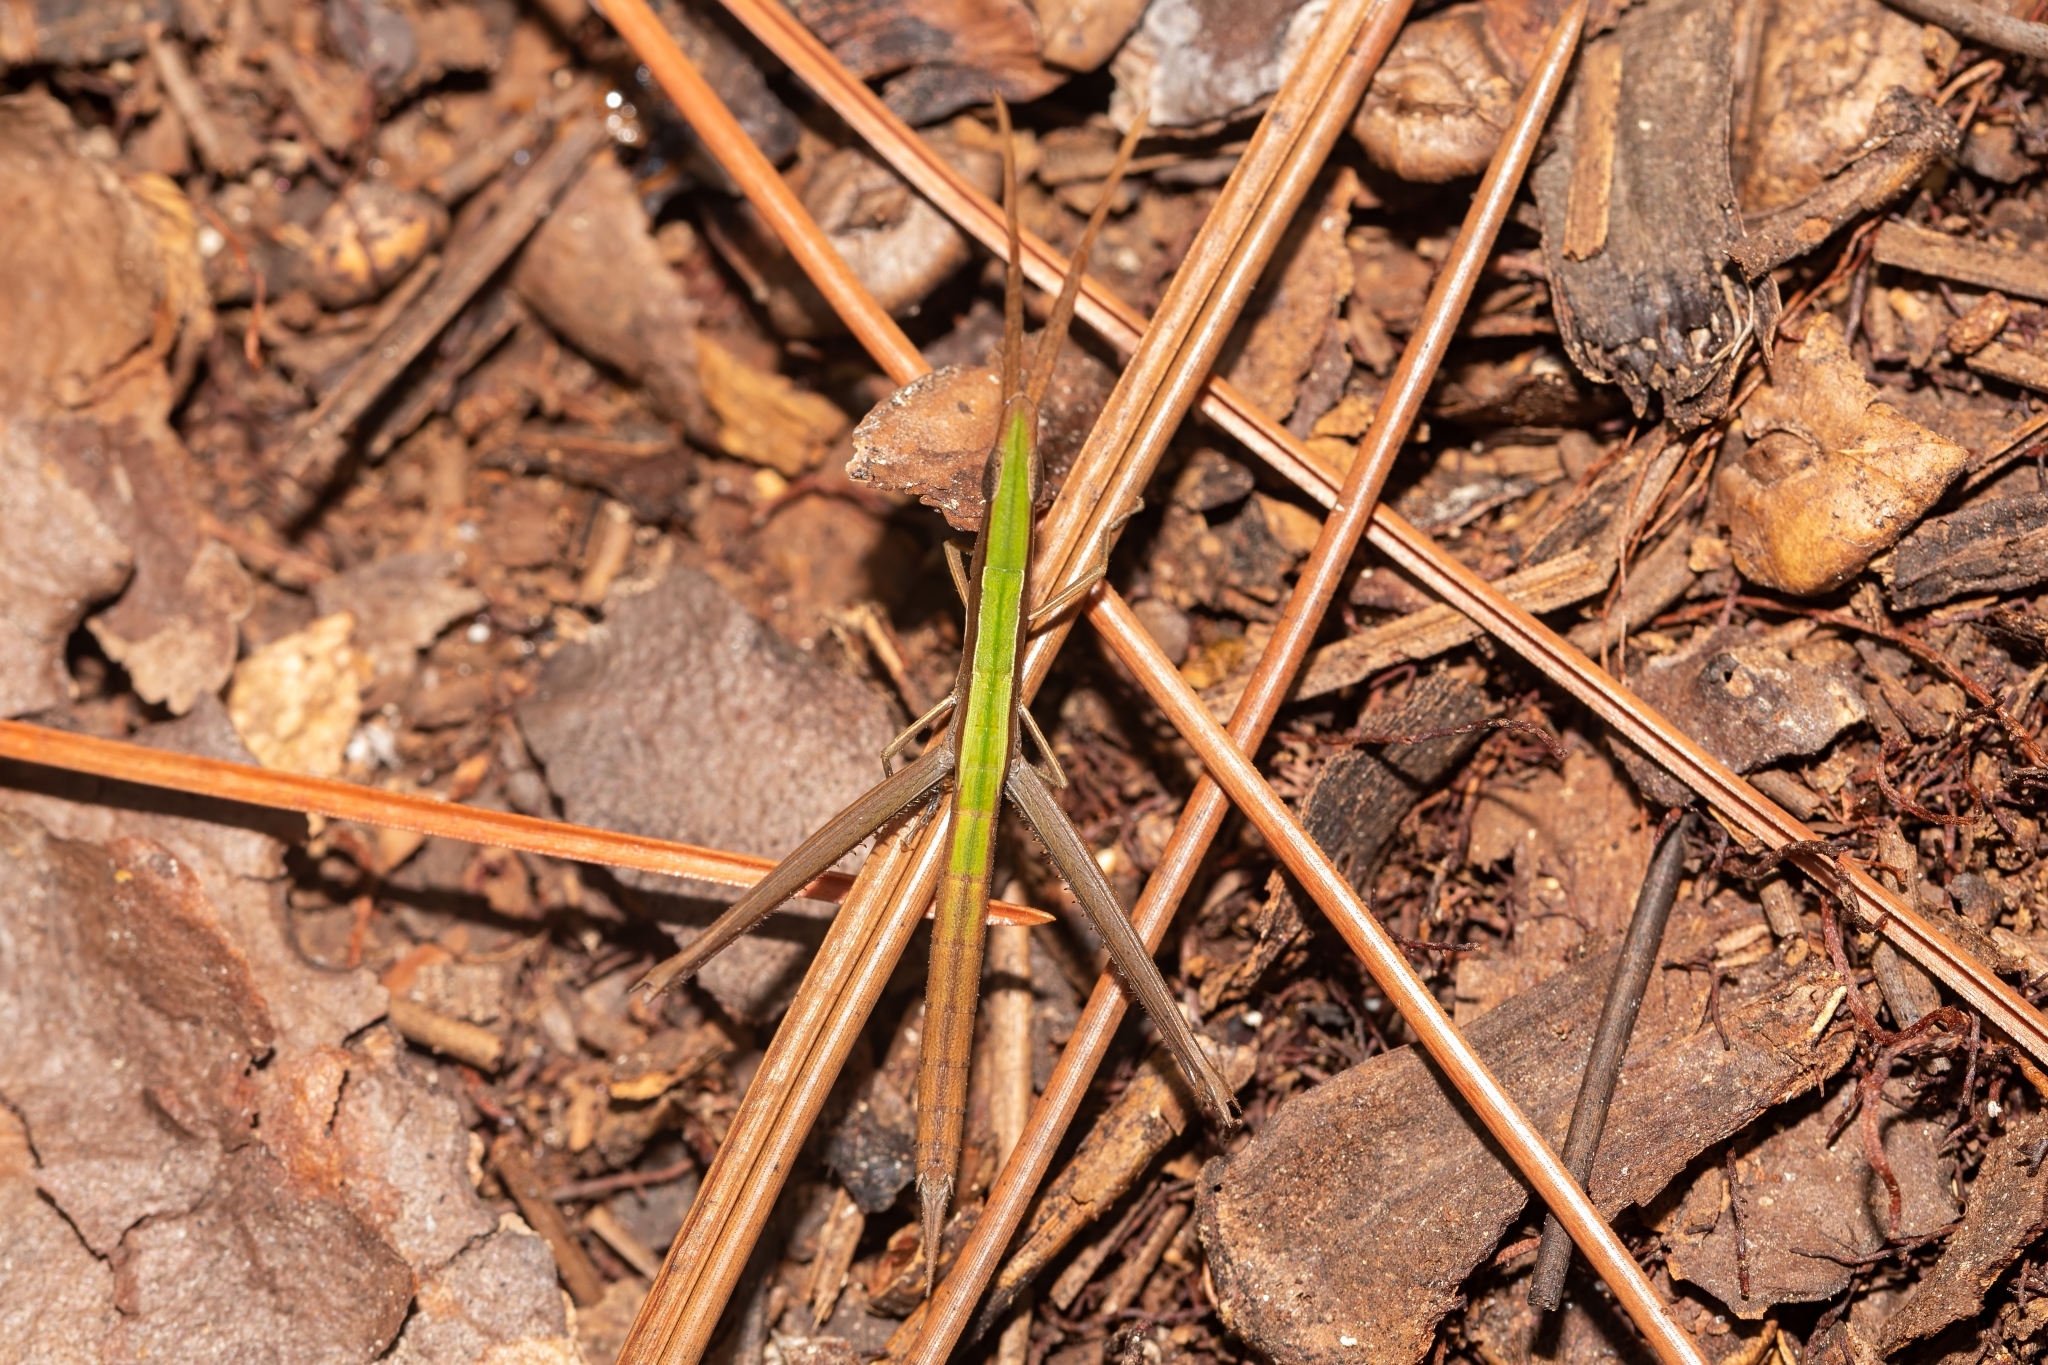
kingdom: Animalia
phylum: Arthropoda
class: Insecta
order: Orthoptera
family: Acrididae
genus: Achurum
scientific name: Achurum carinatum
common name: Long-headed toothpick grasshopper
